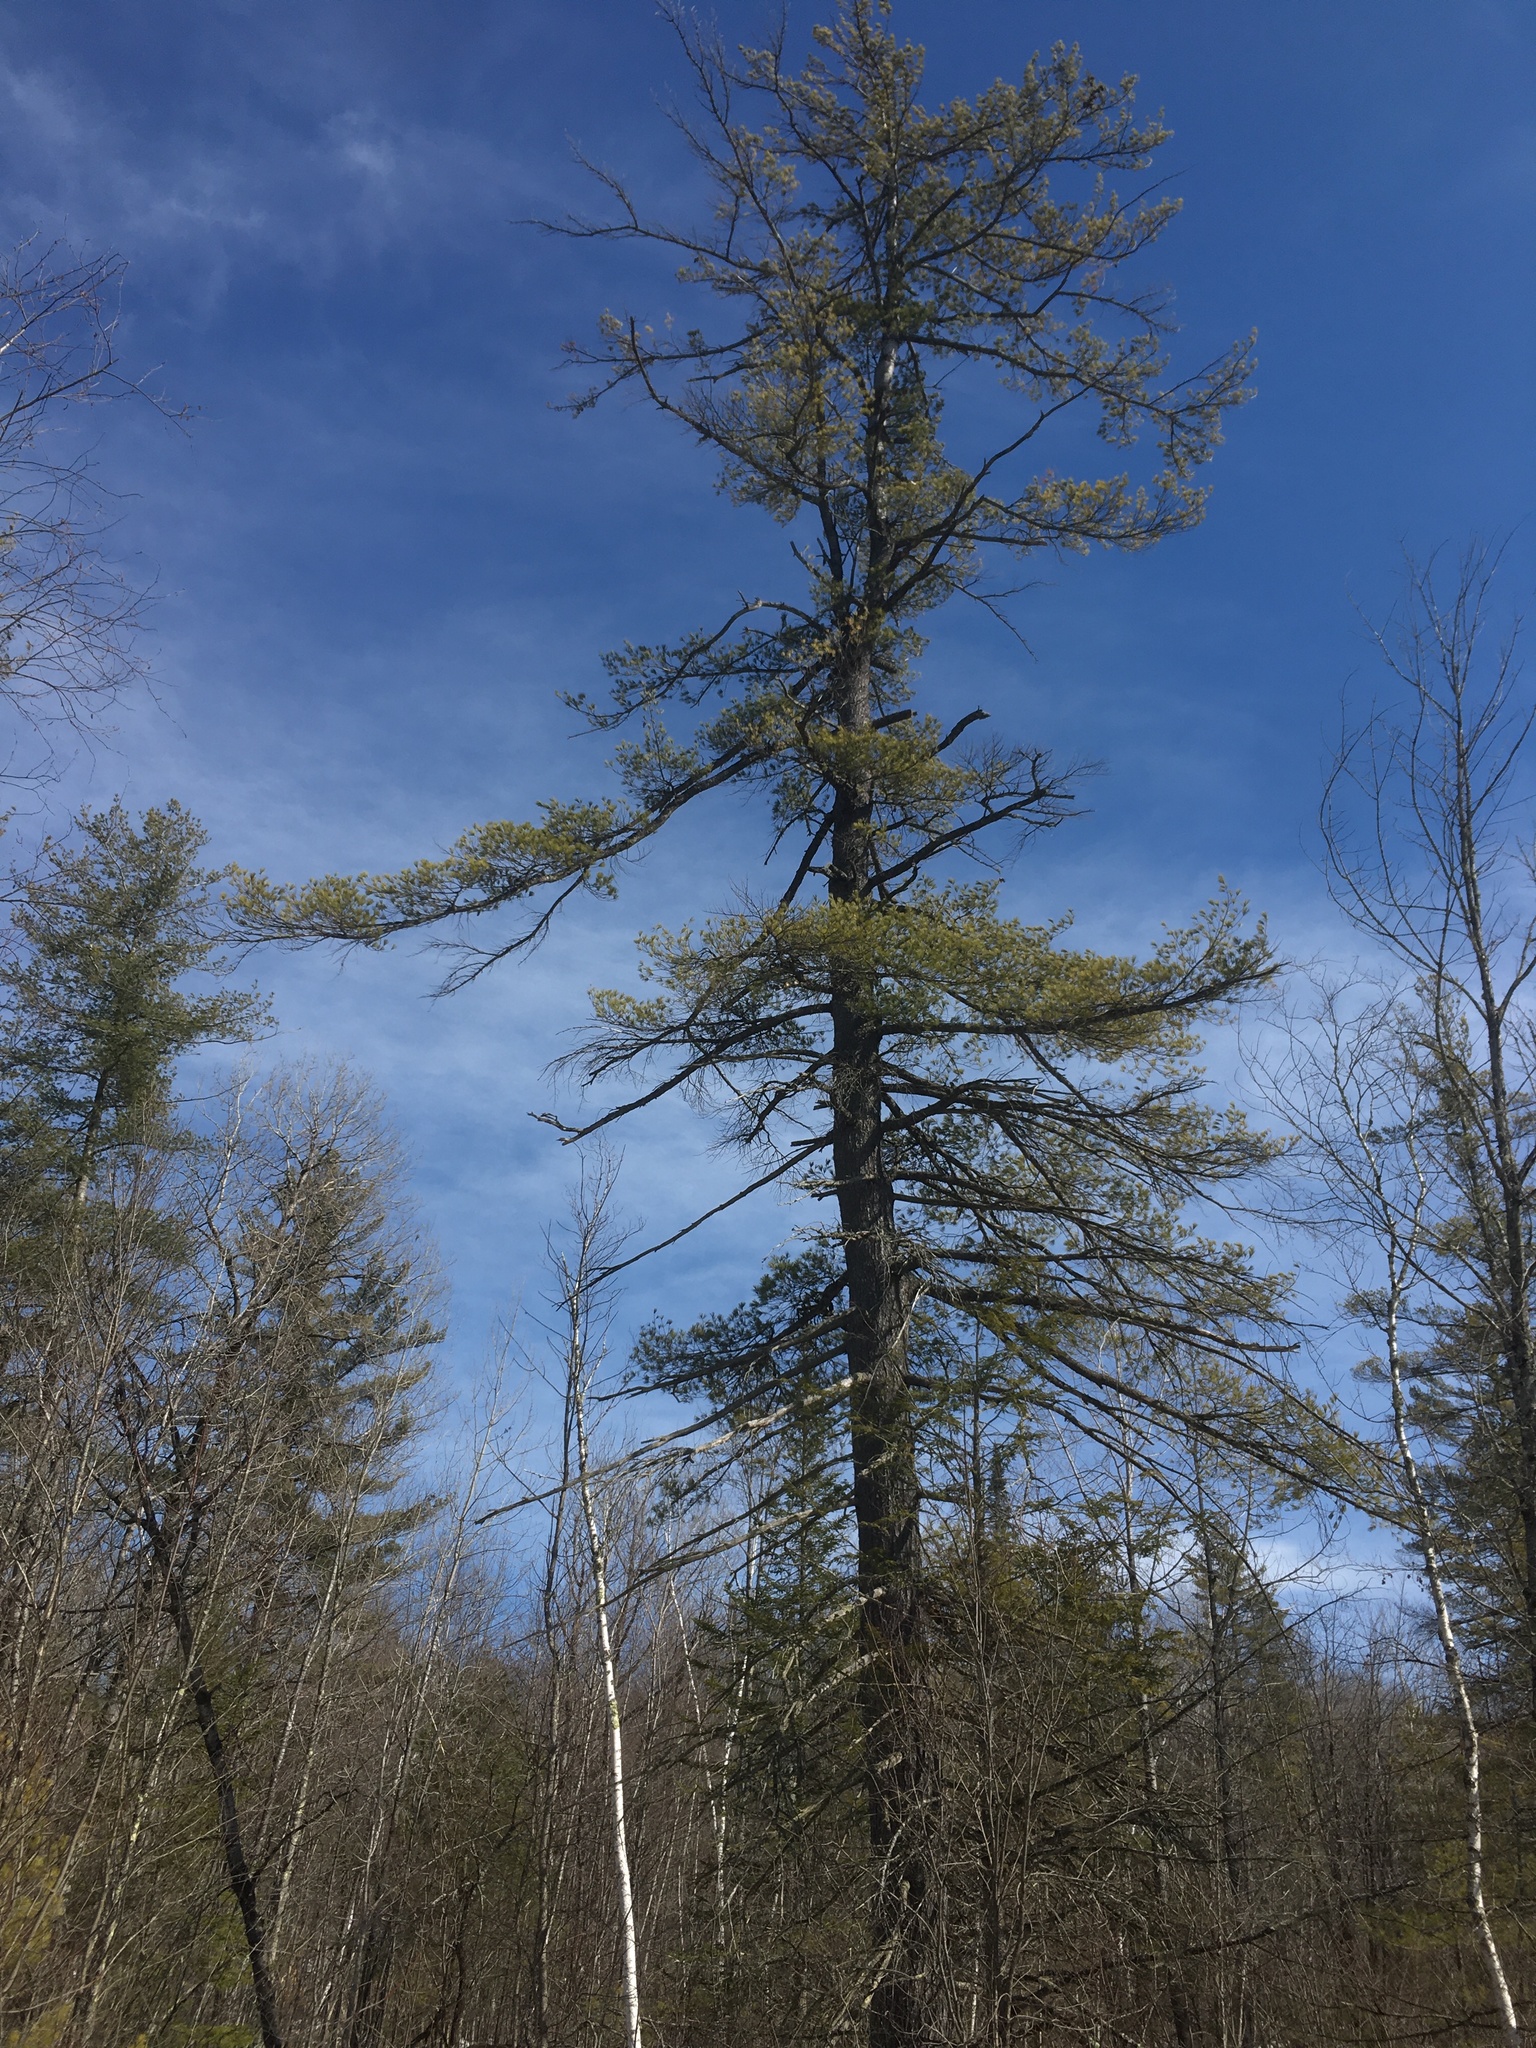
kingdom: Plantae
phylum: Tracheophyta
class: Pinopsida
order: Pinales
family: Pinaceae
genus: Pinus
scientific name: Pinus strobus
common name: Weymouth pine
